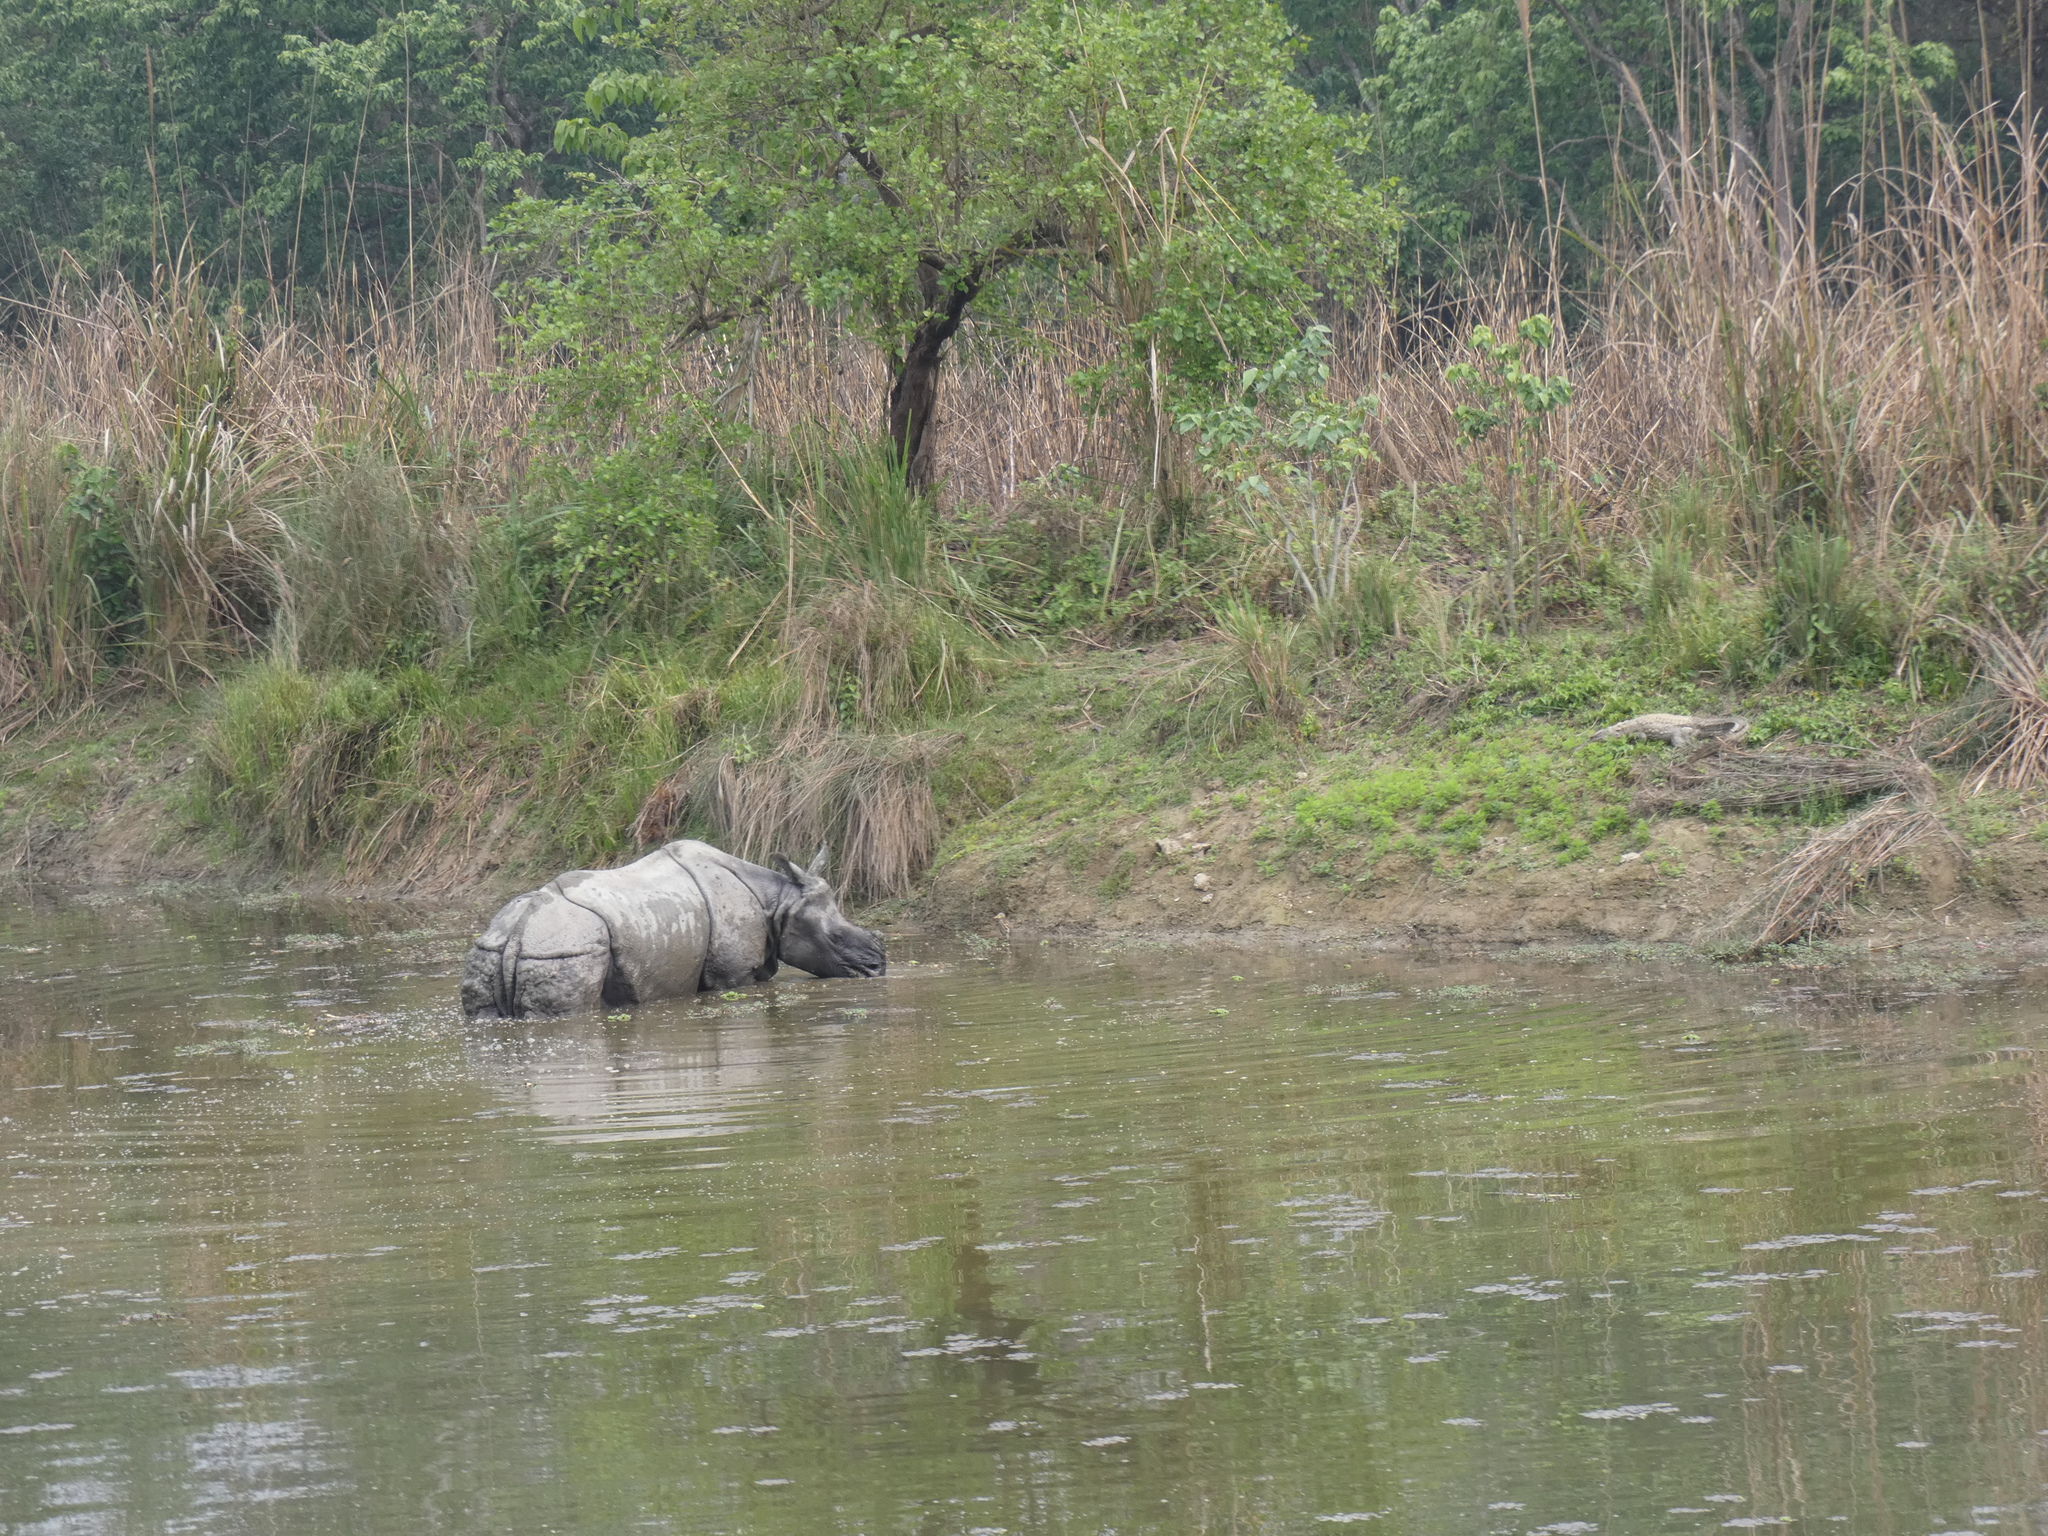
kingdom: Animalia
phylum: Chordata
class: Mammalia
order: Perissodactyla
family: Rhinocerotidae
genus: Rhinoceros
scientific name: Rhinoceros unicornis
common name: Indian rhinoceros
